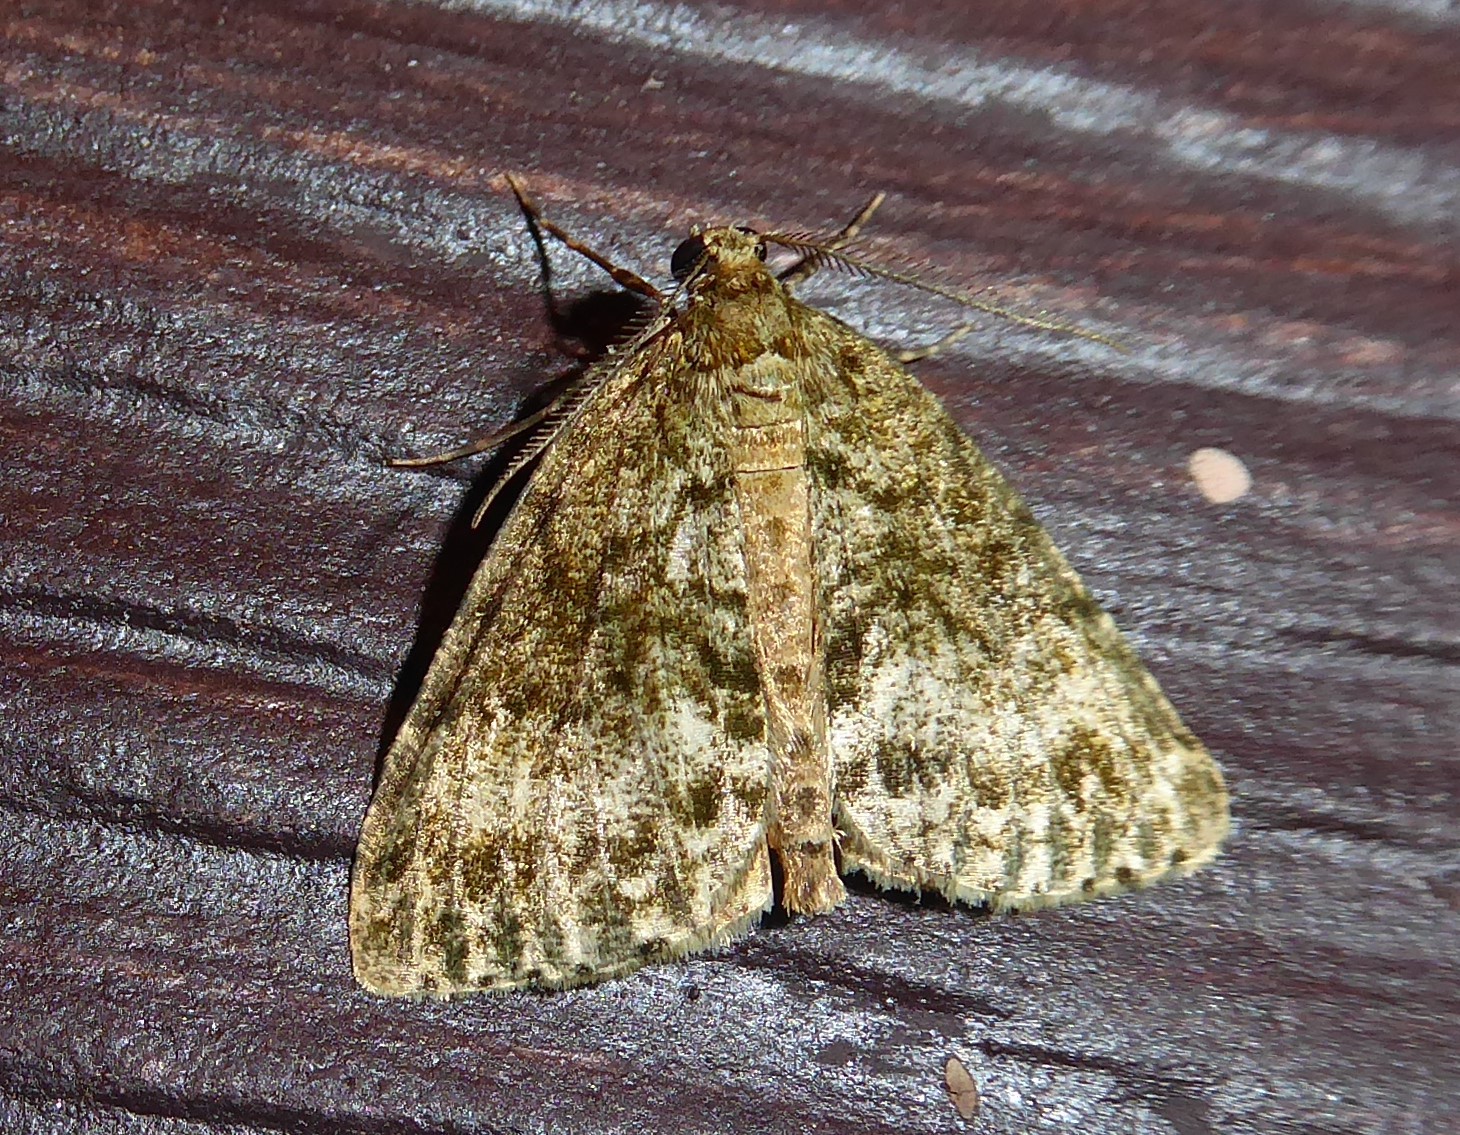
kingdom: Animalia
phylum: Arthropoda
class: Insecta
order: Lepidoptera
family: Geometridae
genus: Pseudocoremia
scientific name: Pseudocoremia indistincta
